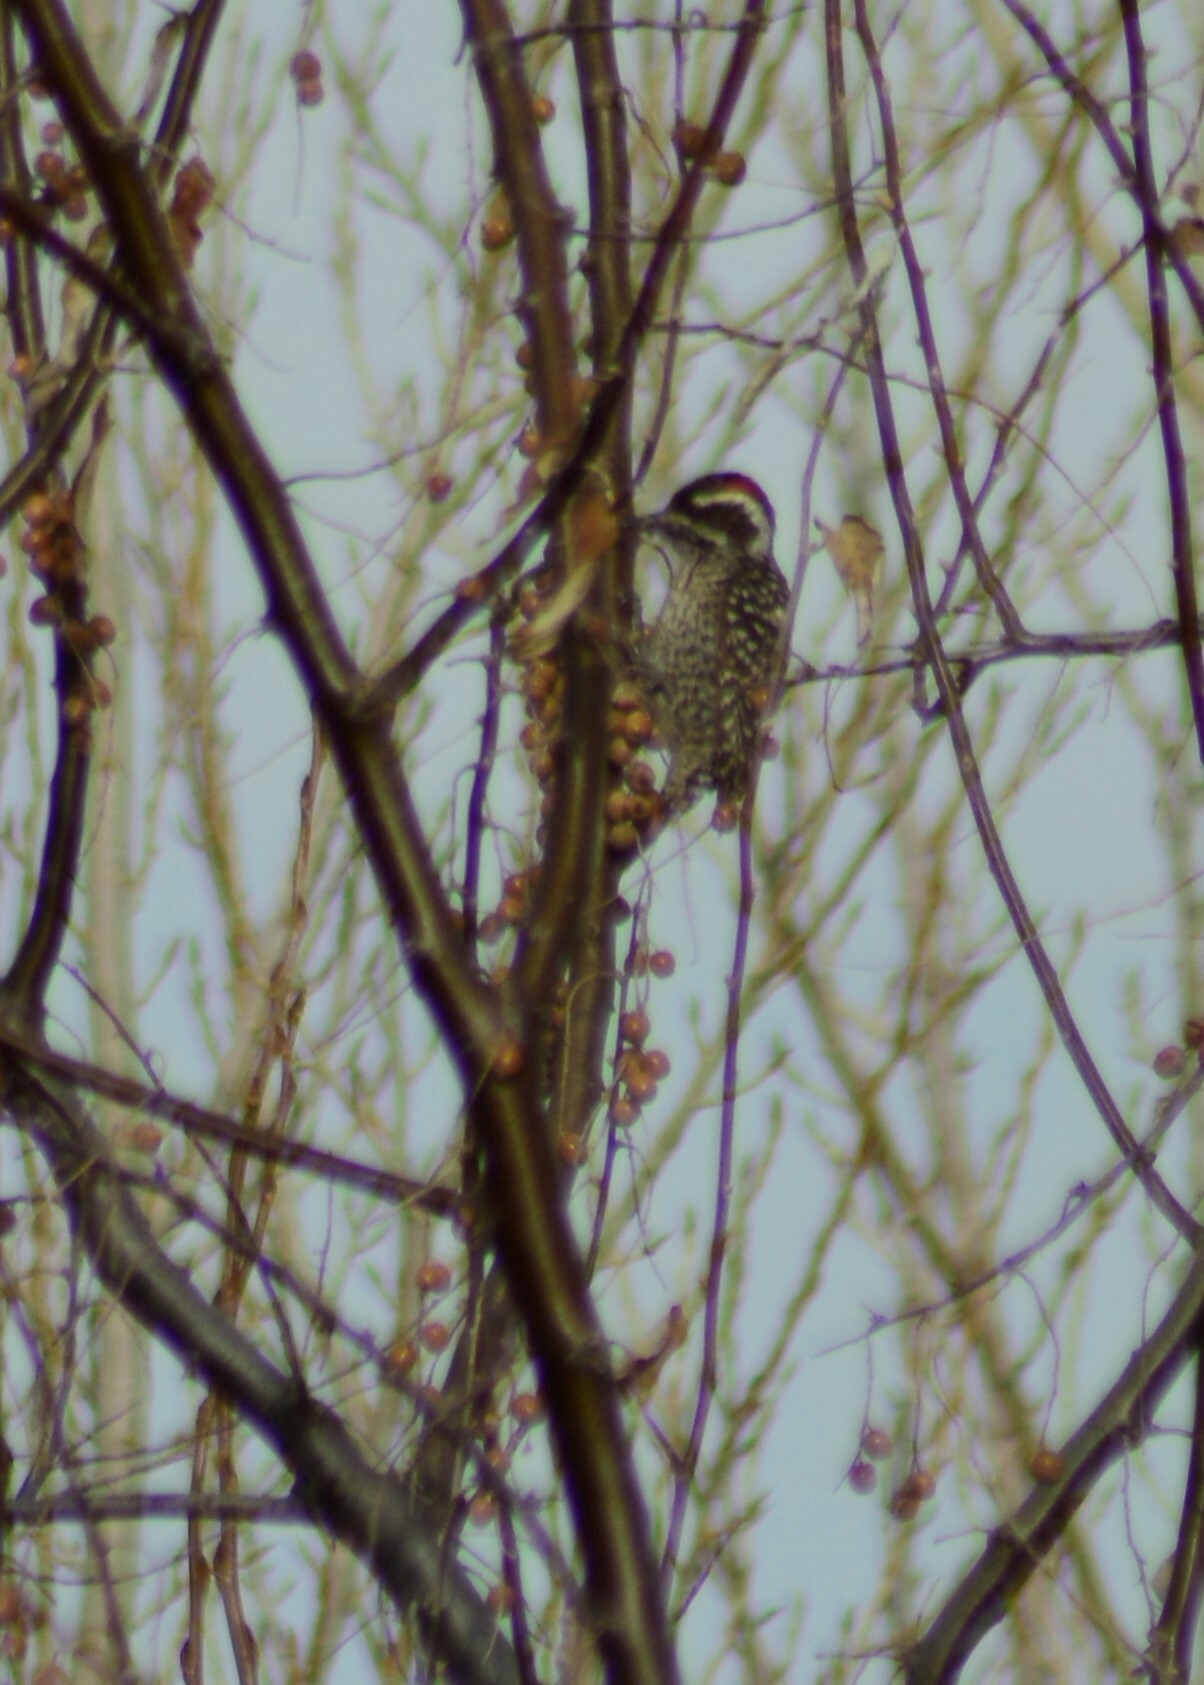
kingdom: Animalia
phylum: Chordata
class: Aves
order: Piciformes
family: Picidae
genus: Veniliornis
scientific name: Veniliornis mixtus
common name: Checkered woodpecker
